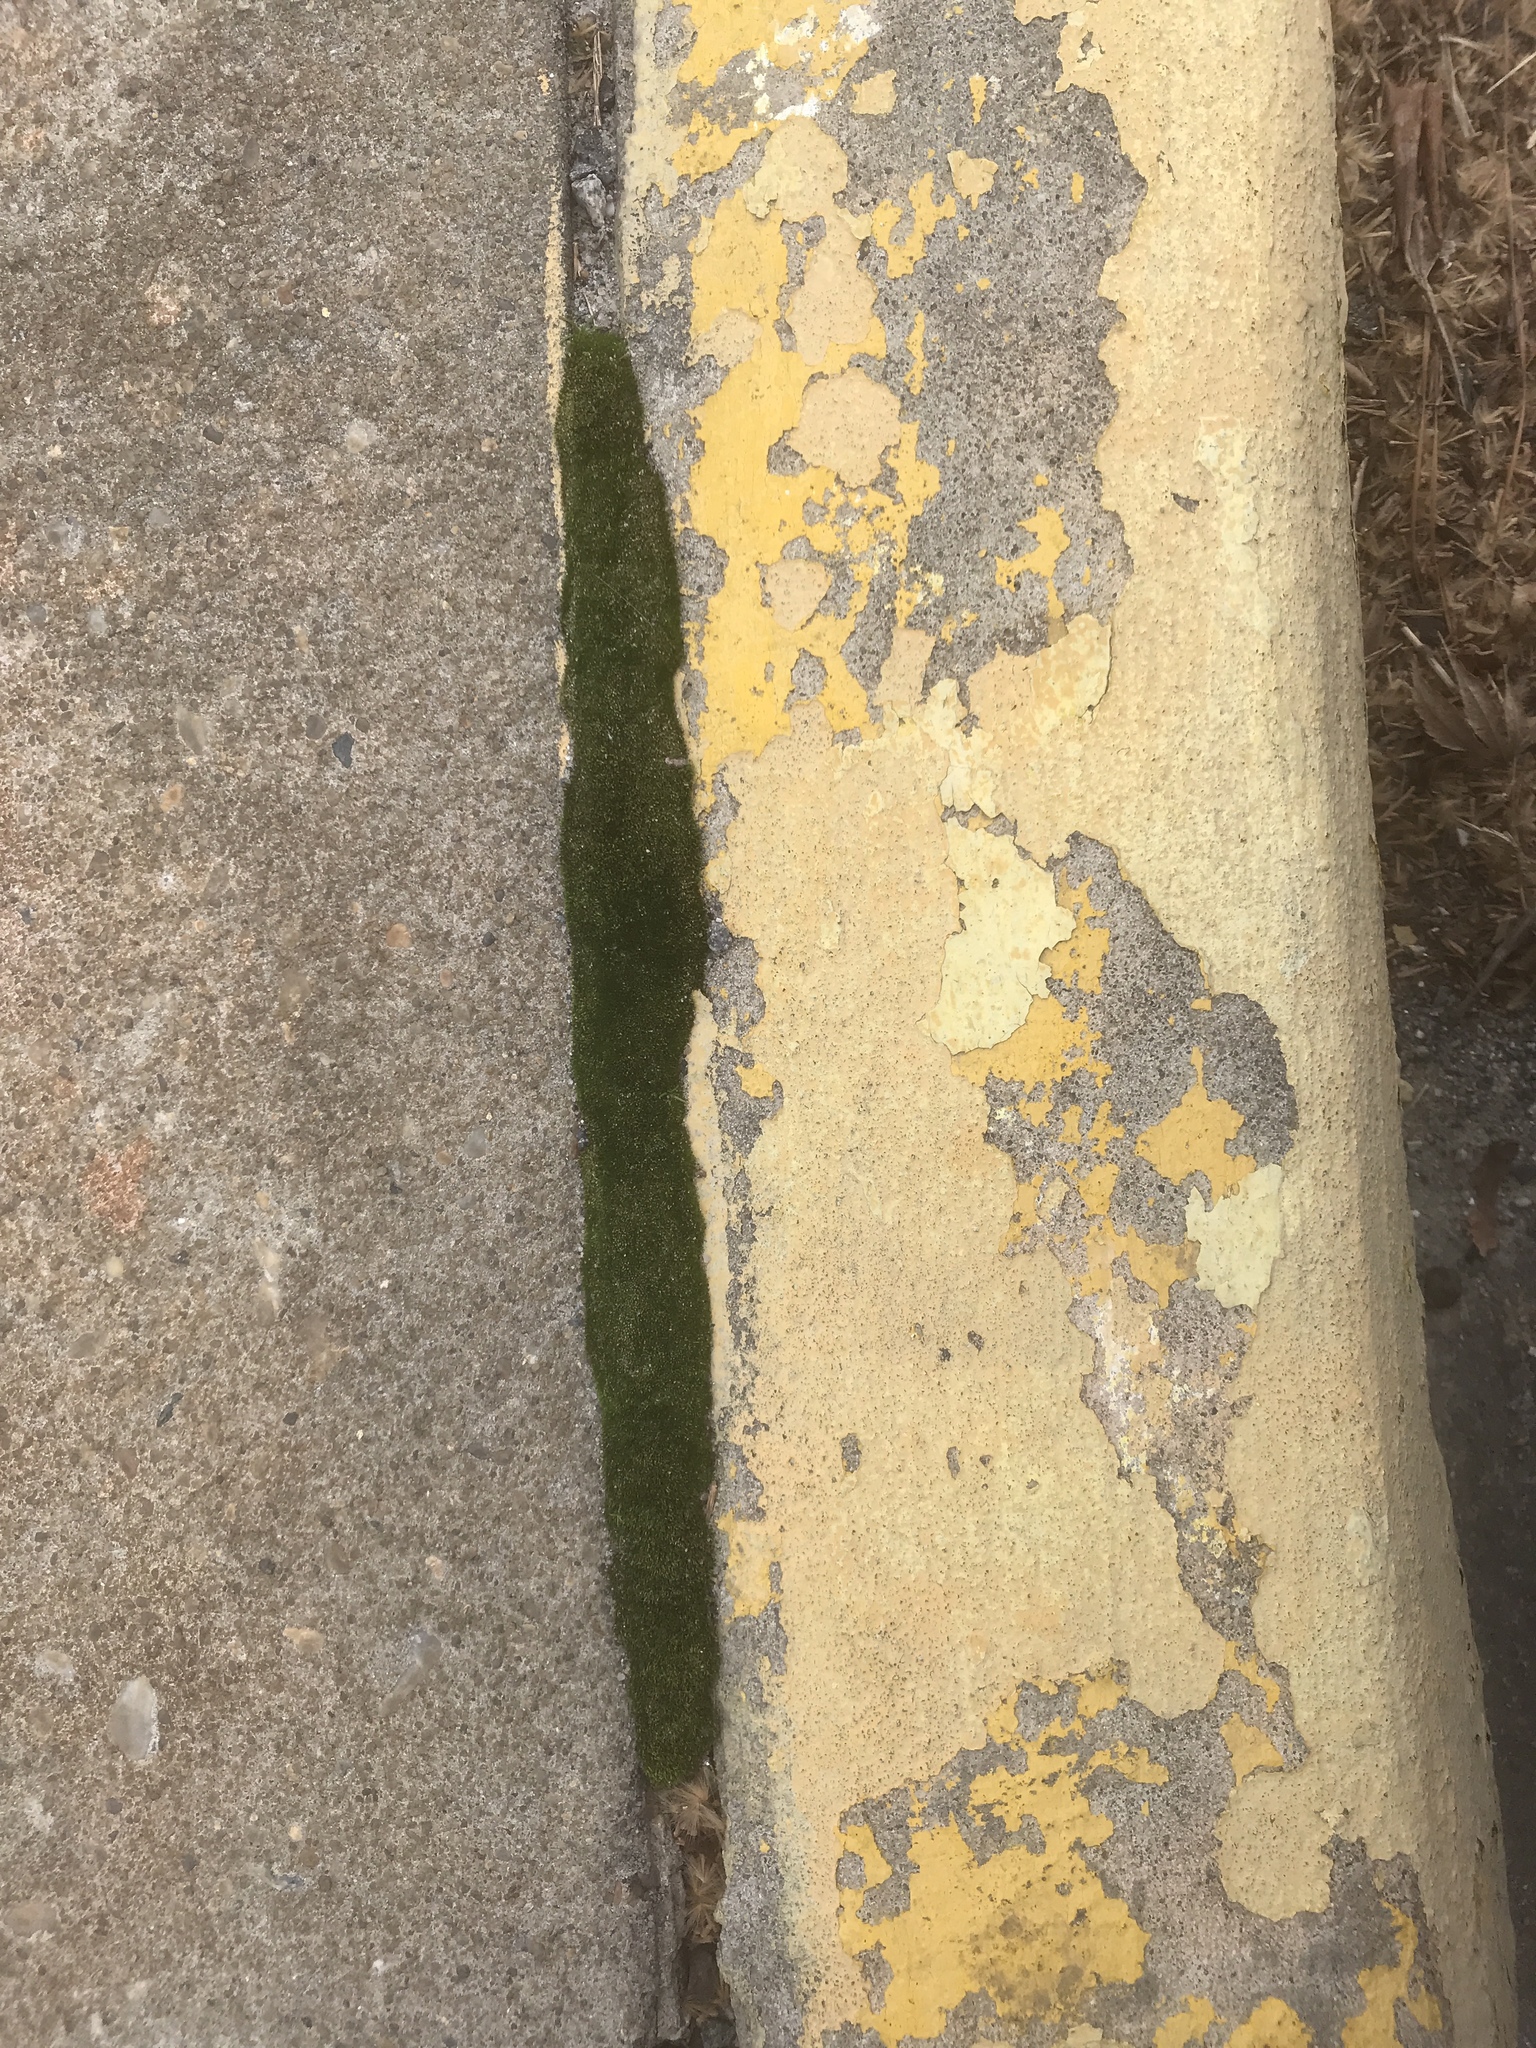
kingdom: Plantae
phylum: Bryophyta
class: Bryopsida
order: Bryales
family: Bryaceae
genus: Bryum
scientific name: Bryum argenteum
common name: Silver-moss
